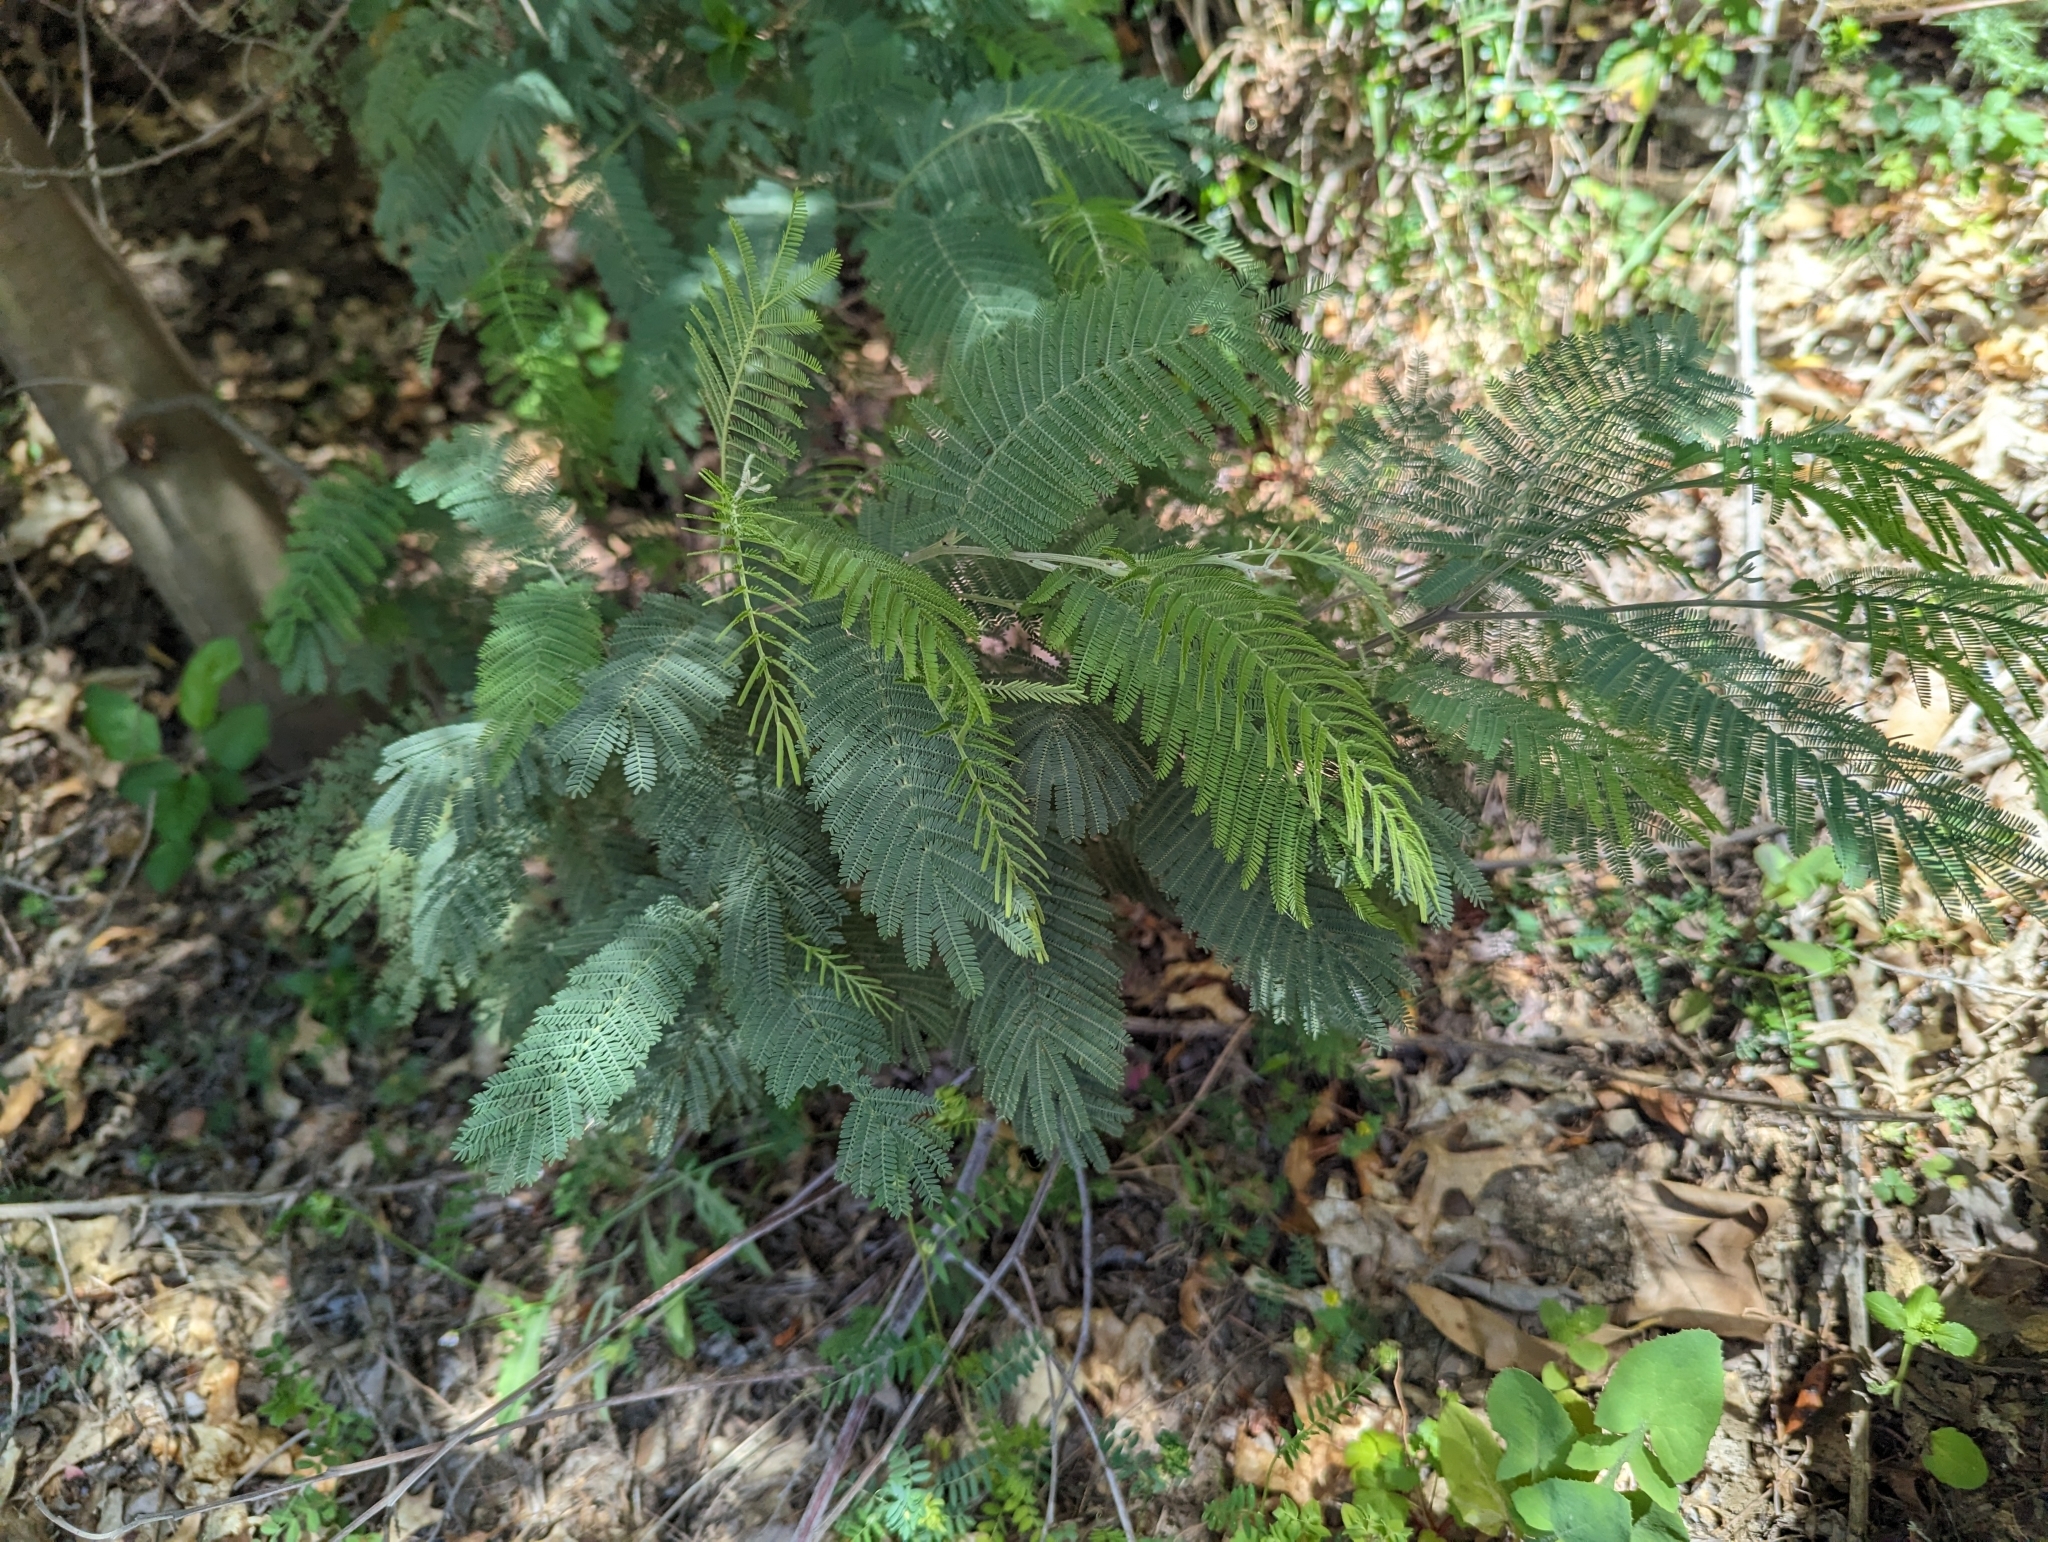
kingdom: Plantae
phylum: Tracheophyta
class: Magnoliopsida
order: Asterales
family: Asteraceae
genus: Achillea
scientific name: Achillea millefolium
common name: Yarrow
